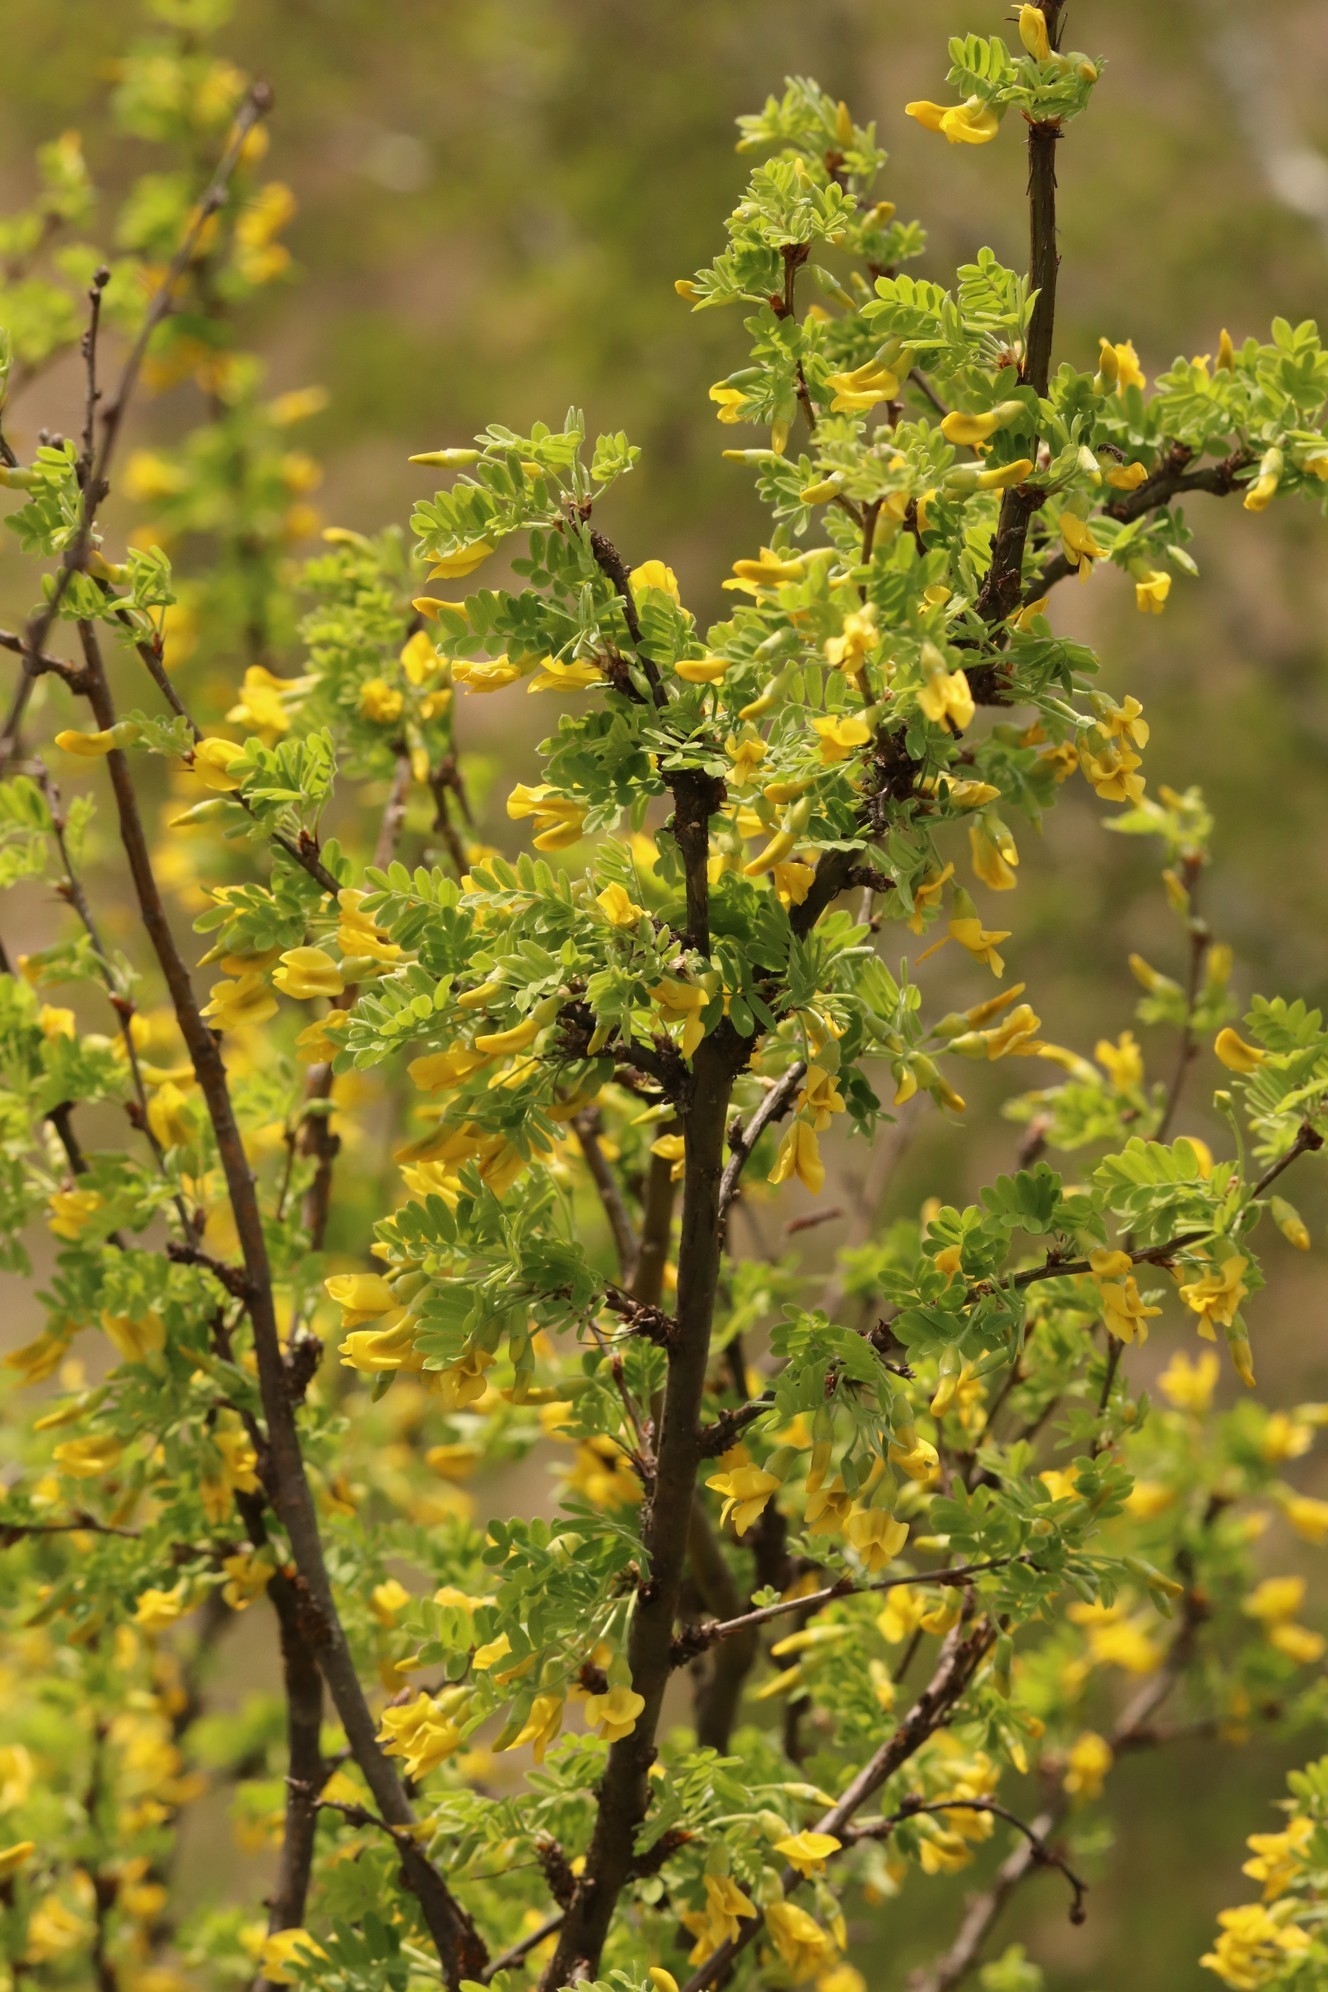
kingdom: Plantae
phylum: Tracheophyta
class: Magnoliopsida
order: Fabales
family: Fabaceae
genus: Caragana
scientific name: Caragana arborescens
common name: Siberian peashrub
